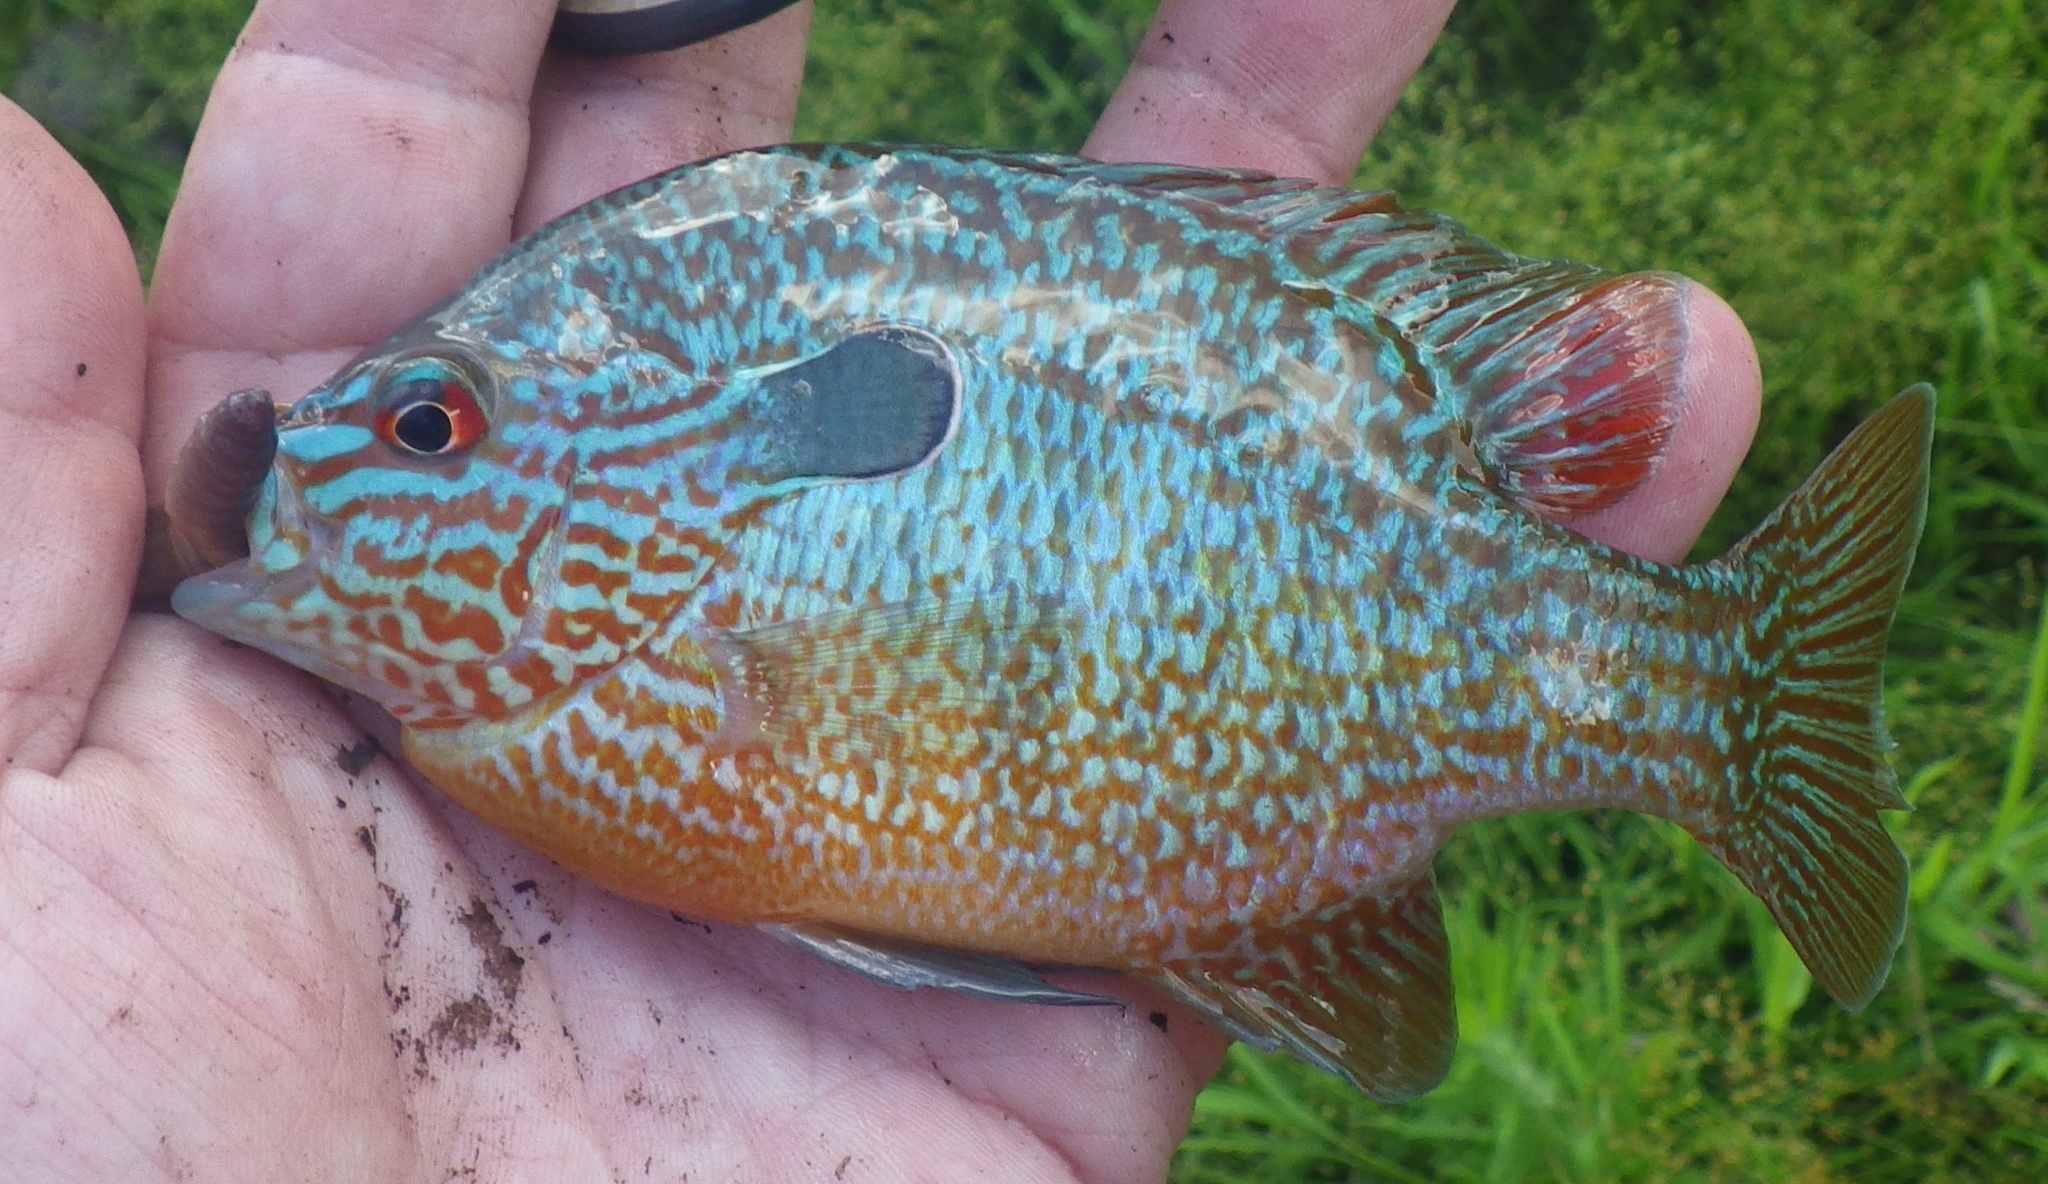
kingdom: Animalia
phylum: Chordata
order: Perciformes
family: Centrarchidae
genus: Lepomis
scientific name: Lepomis megalotis
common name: Longear sunfish
